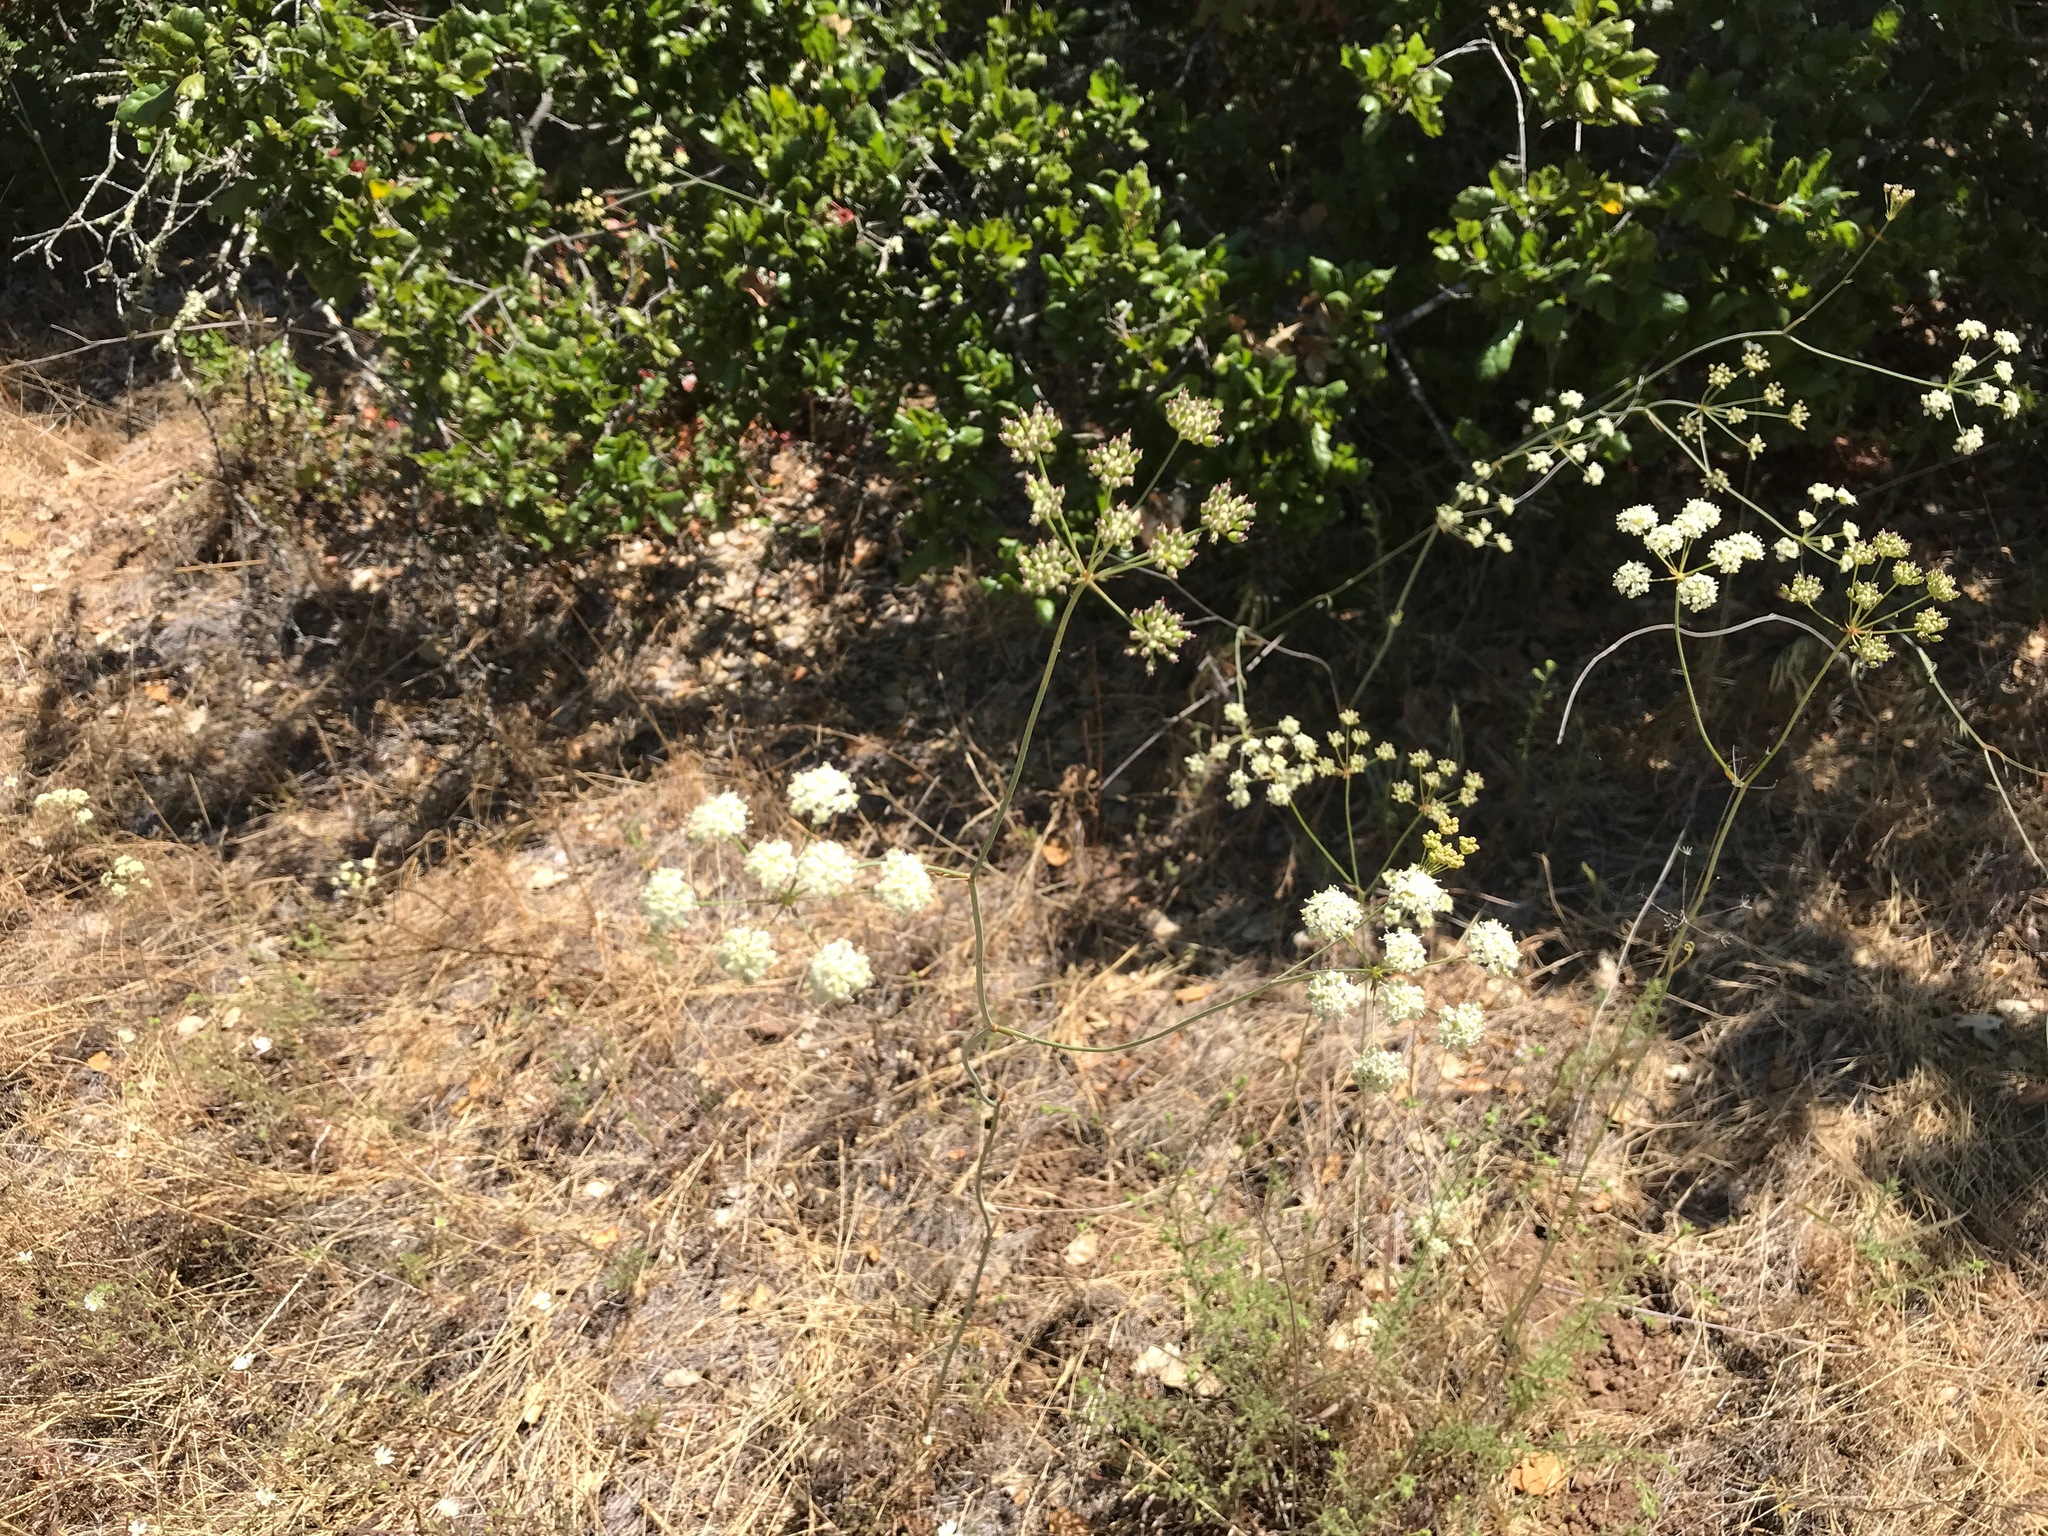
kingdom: Plantae
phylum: Tracheophyta
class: Magnoliopsida
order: Apiales
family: Apiaceae
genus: Perideridia
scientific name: Perideridia kelloggii
